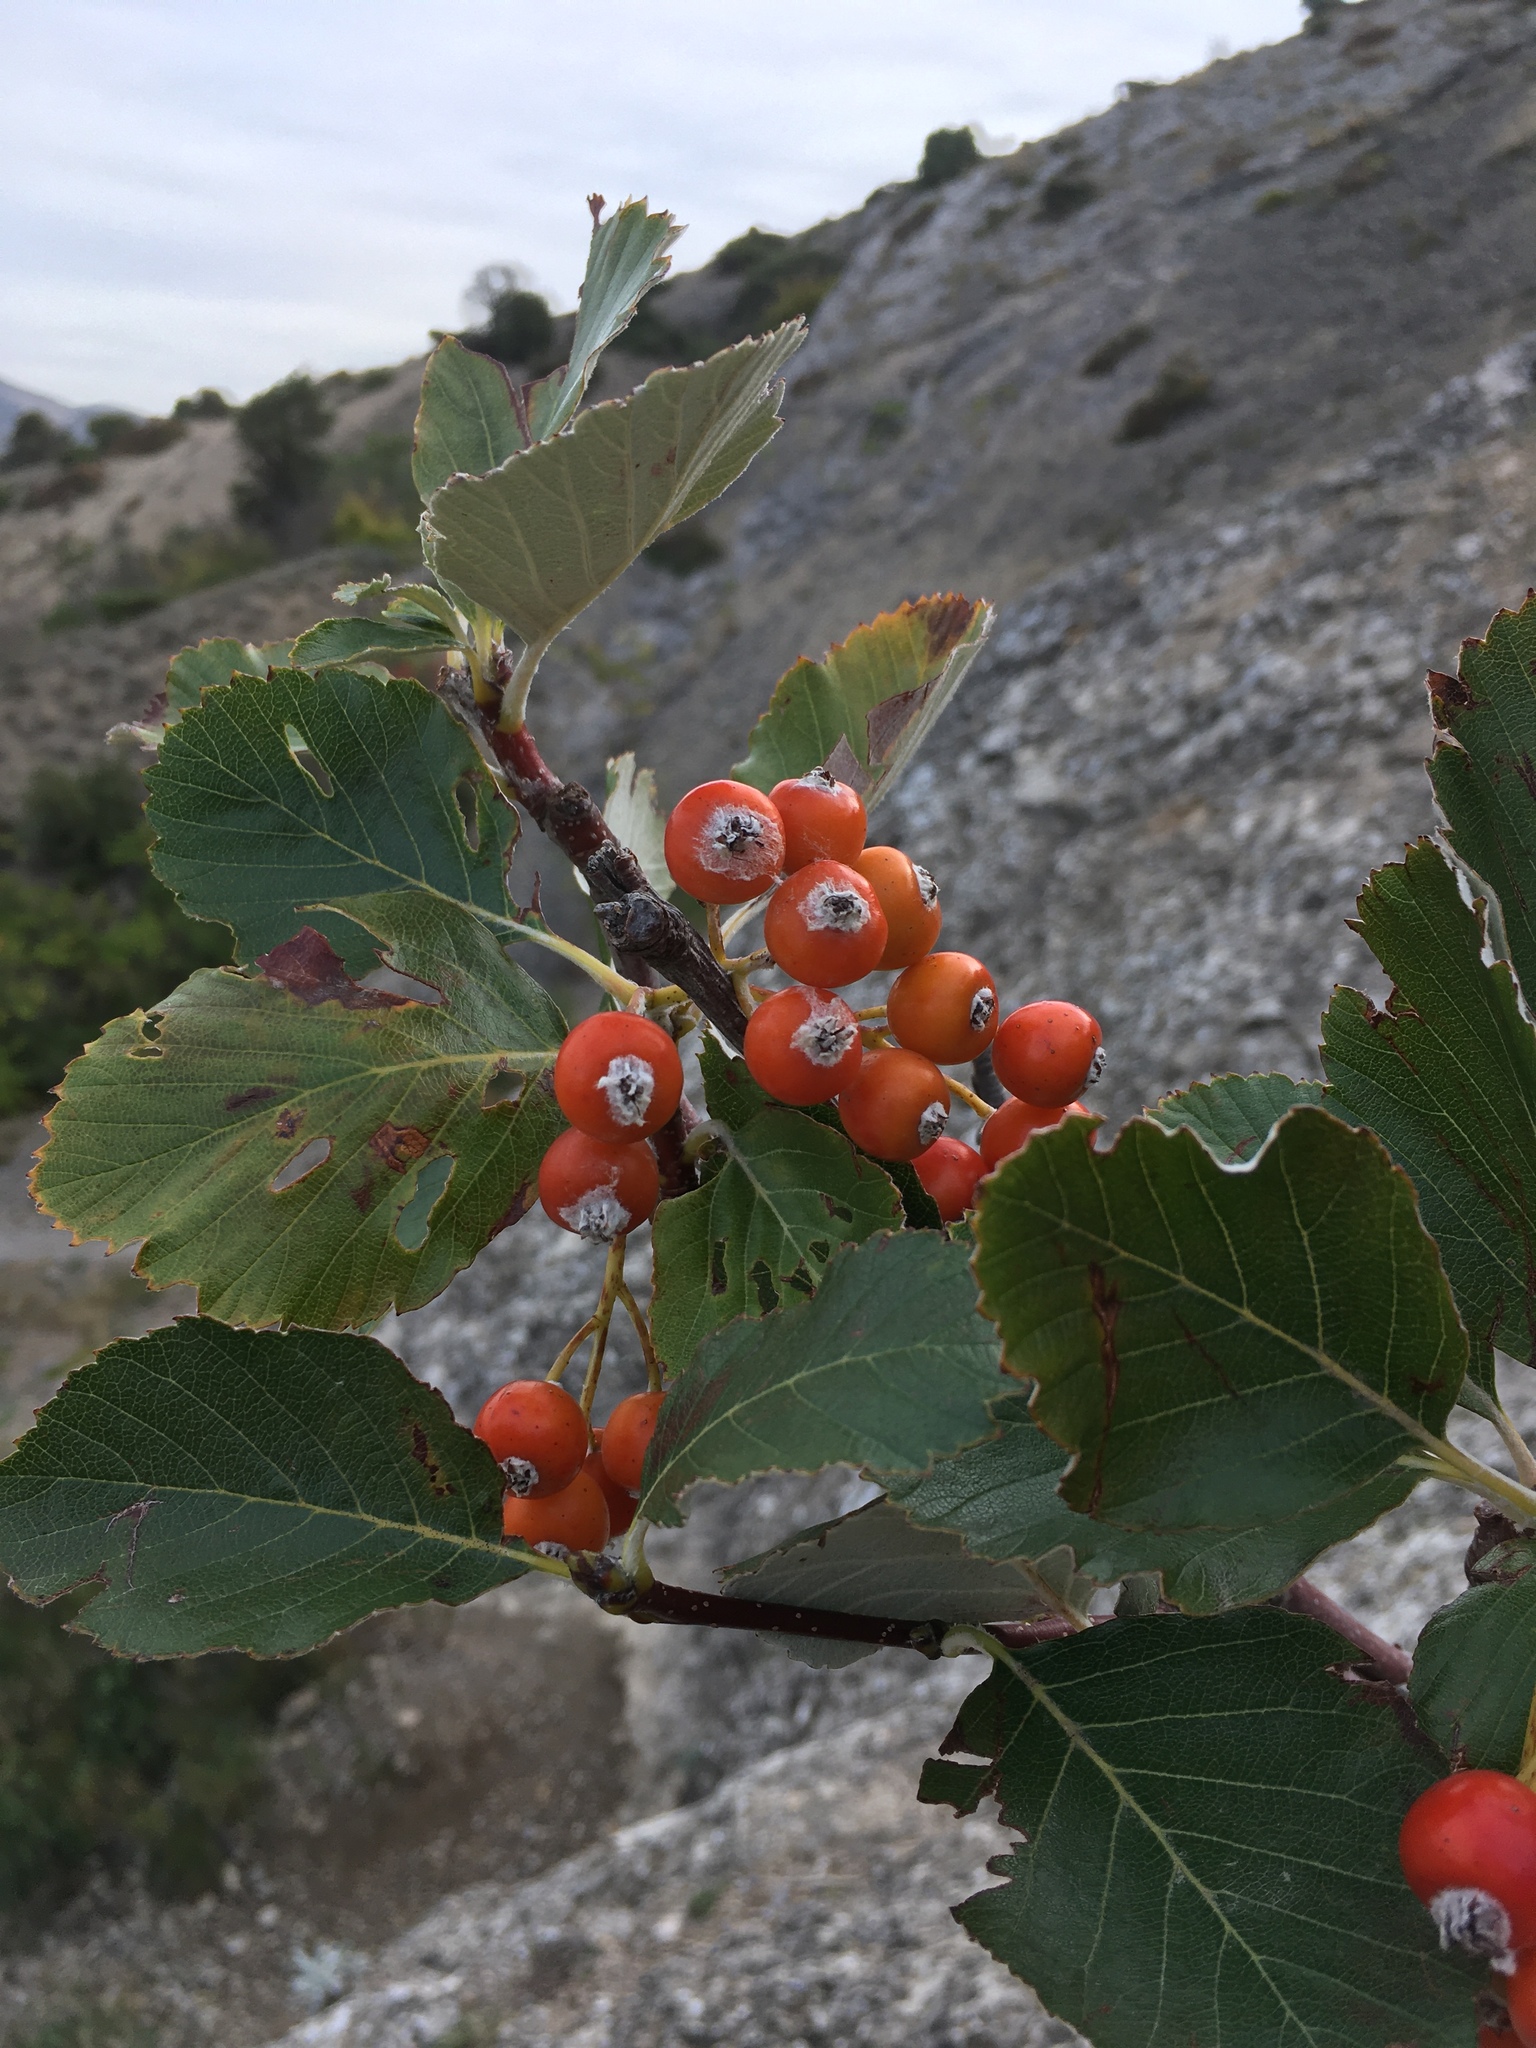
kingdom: Plantae
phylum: Tracheophyta
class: Magnoliopsida
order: Rosales
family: Rosaceae
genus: Aria
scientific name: Aria graeca
